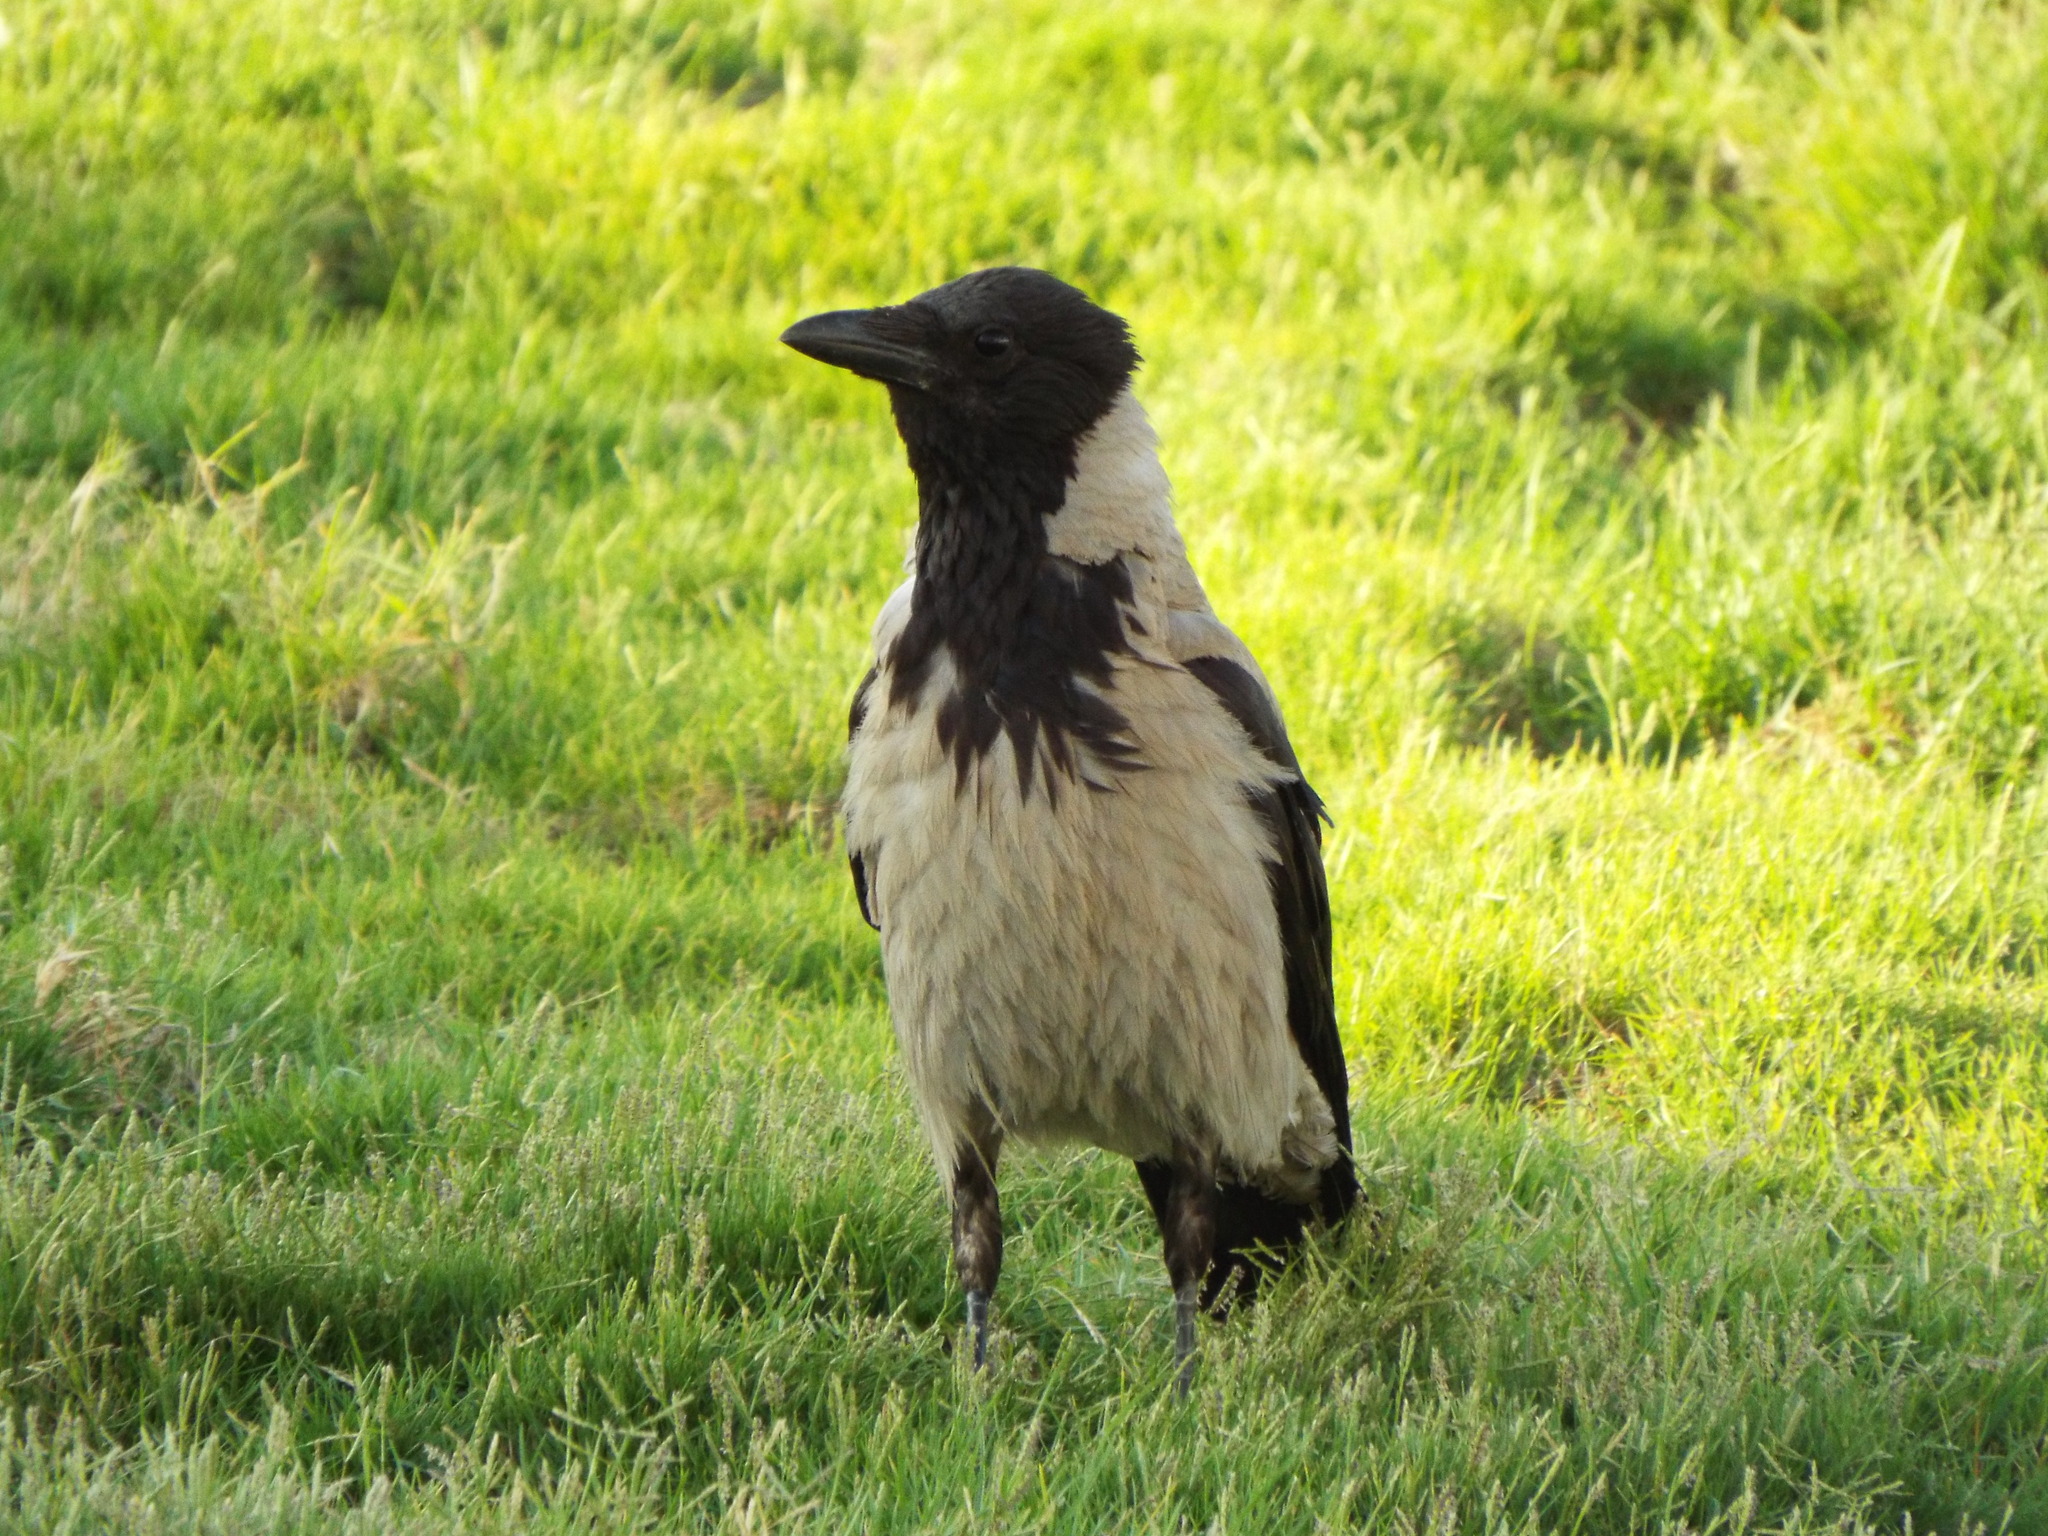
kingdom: Animalia
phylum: Chordata
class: Aves
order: Passeriformes
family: Corvidae
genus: Corvus
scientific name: Corvus cornix
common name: Hooded crow
